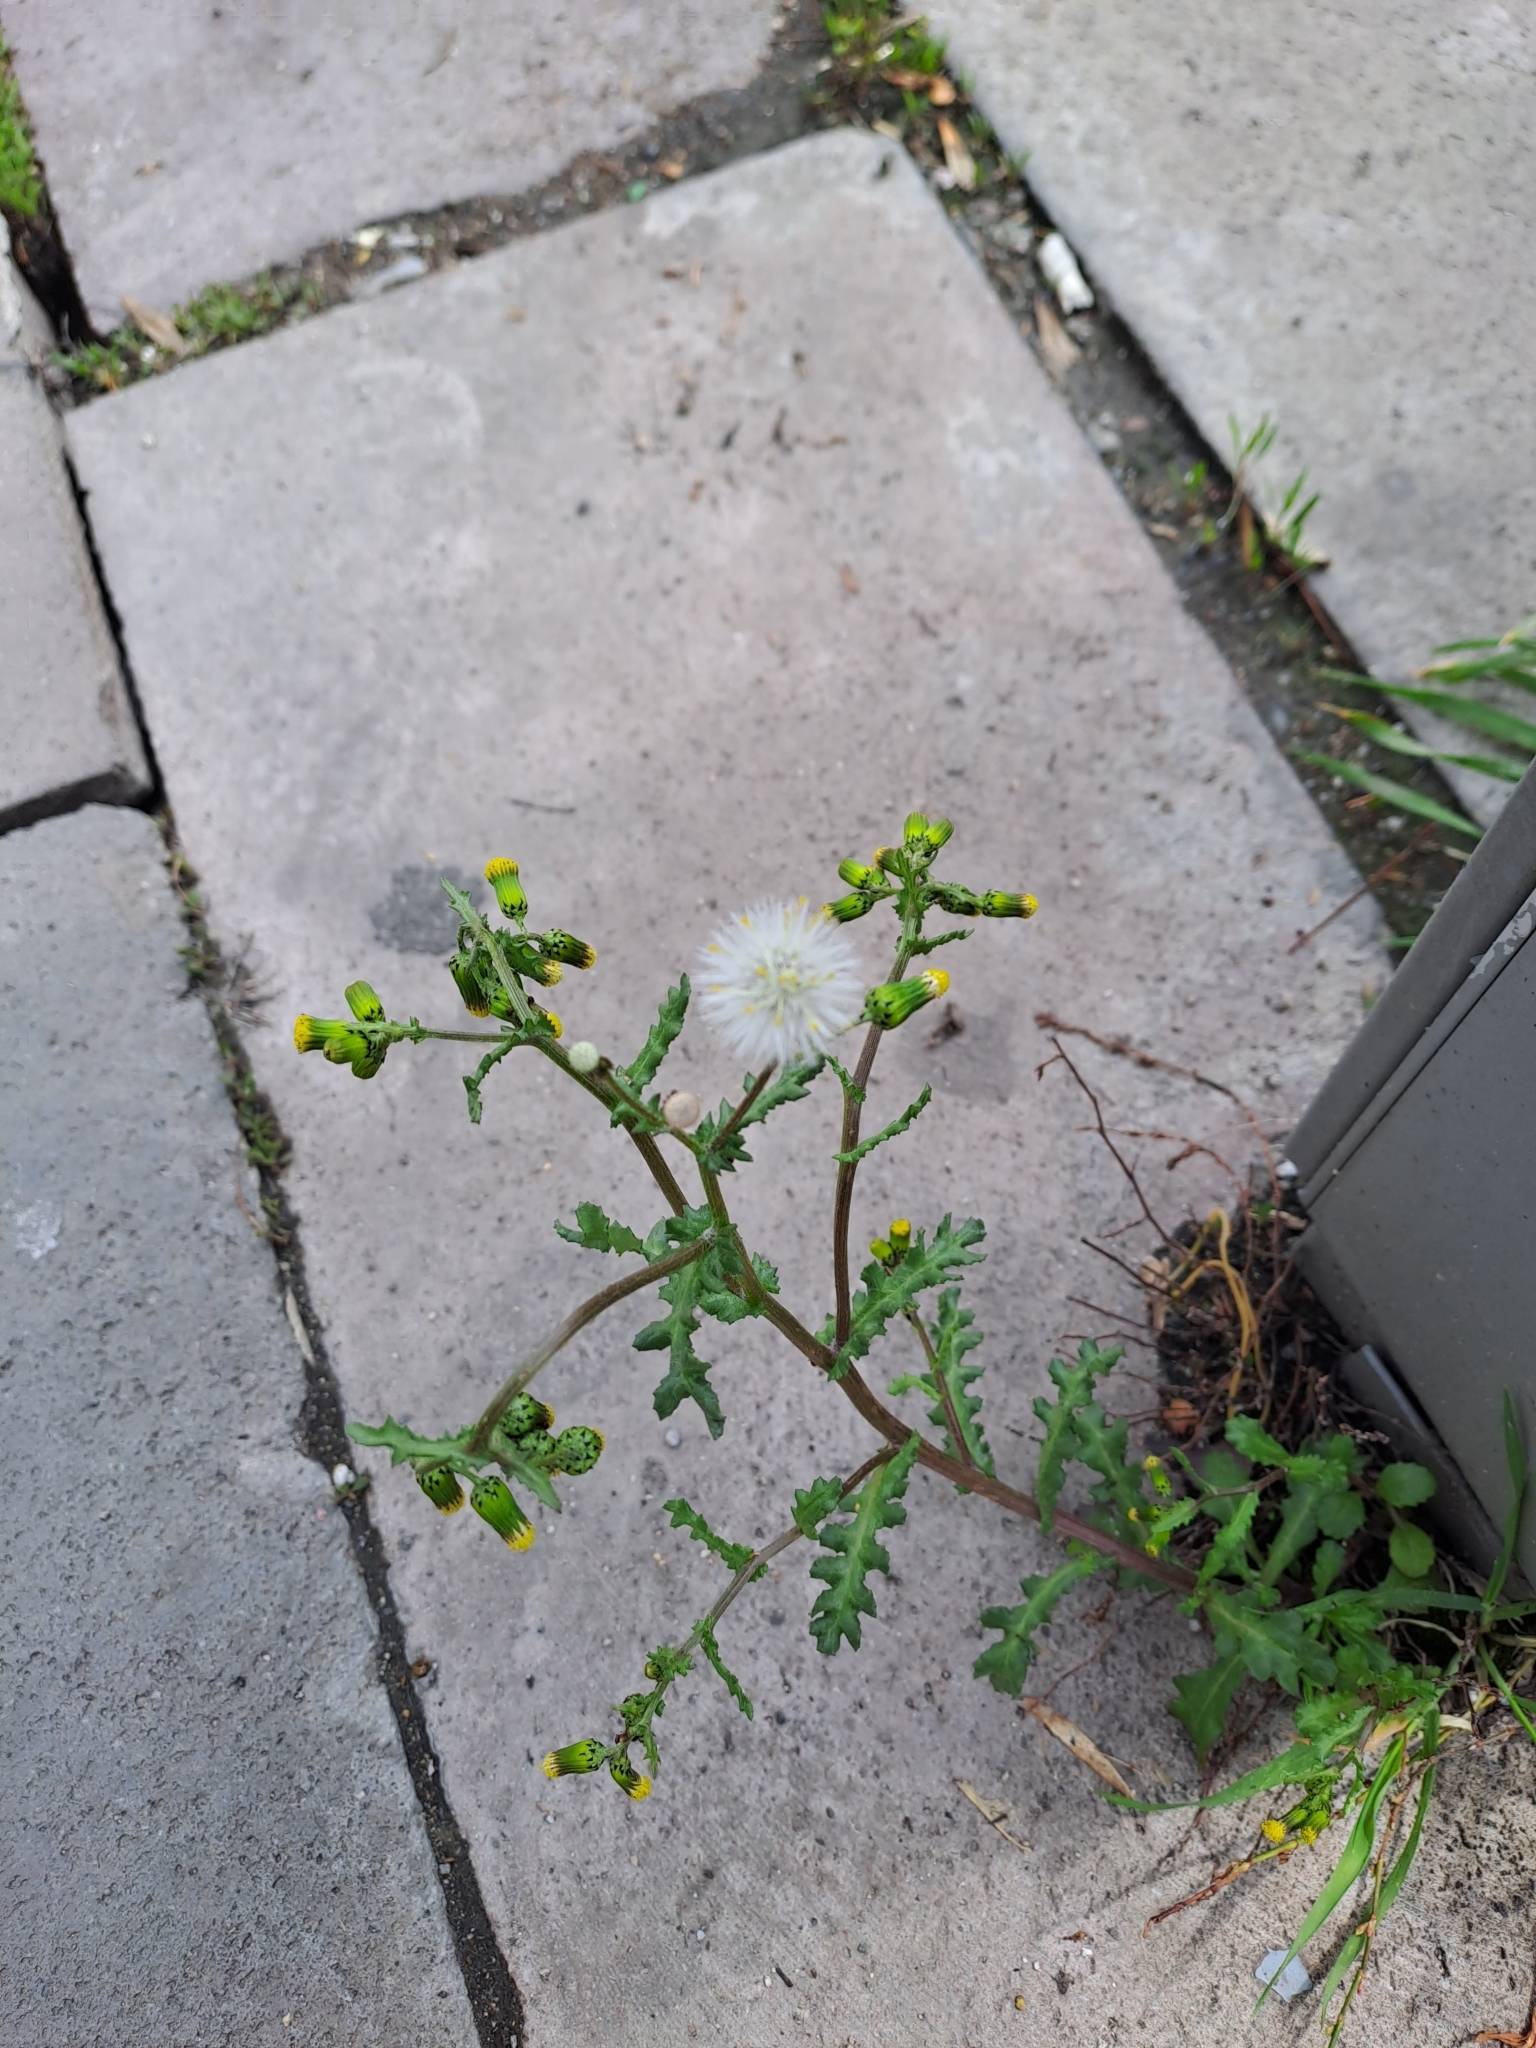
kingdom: Plantae
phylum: Tracheophyta
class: Magnoliopsida
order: Asterales
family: Asteraceae
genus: Senecio
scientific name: Senecio vulgaris
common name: Old-man-in-the-spring
